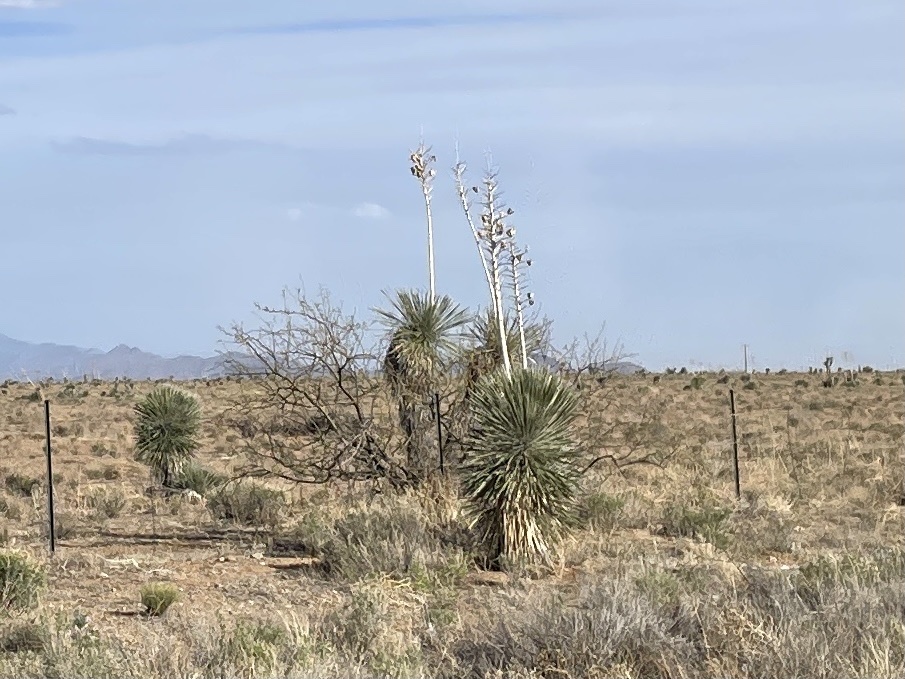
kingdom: Plantae
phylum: Tracheophyta
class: Liliopsida
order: Asparagales
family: Asparagaceae
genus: Yucca
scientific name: Yucca elata
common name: Palmella
